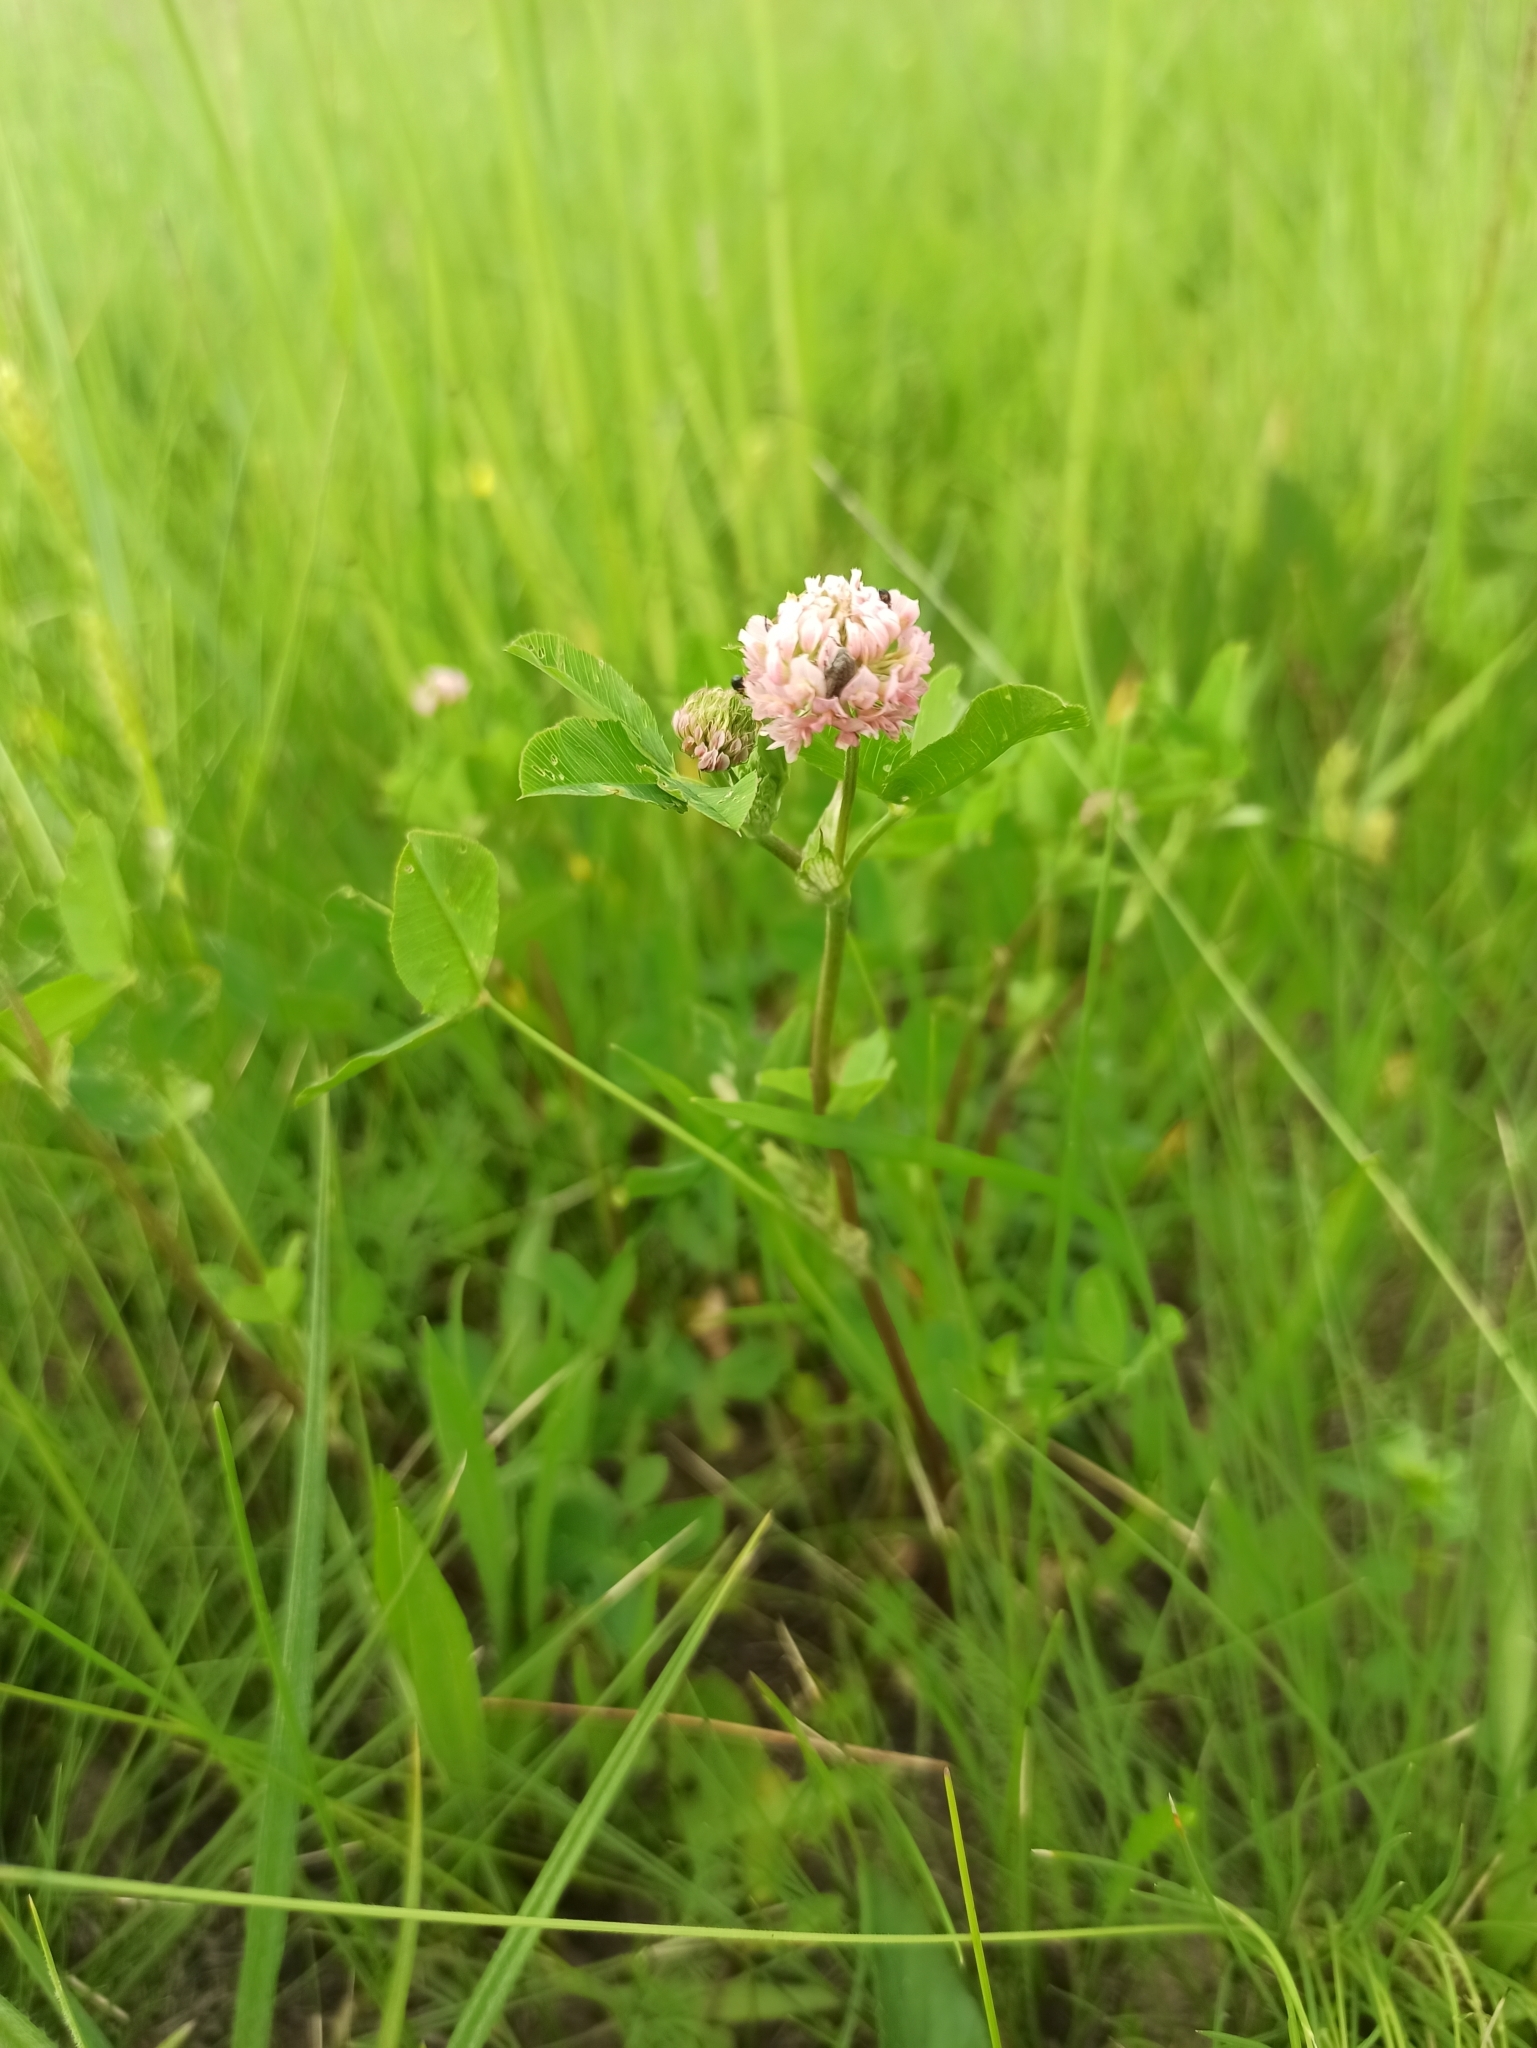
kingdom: Plantae
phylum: Tracheophyta
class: Magnoliopsida
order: Fabales
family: Fabaceae
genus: Trifolium
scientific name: Trifolium hybridum
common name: Alsike clover
